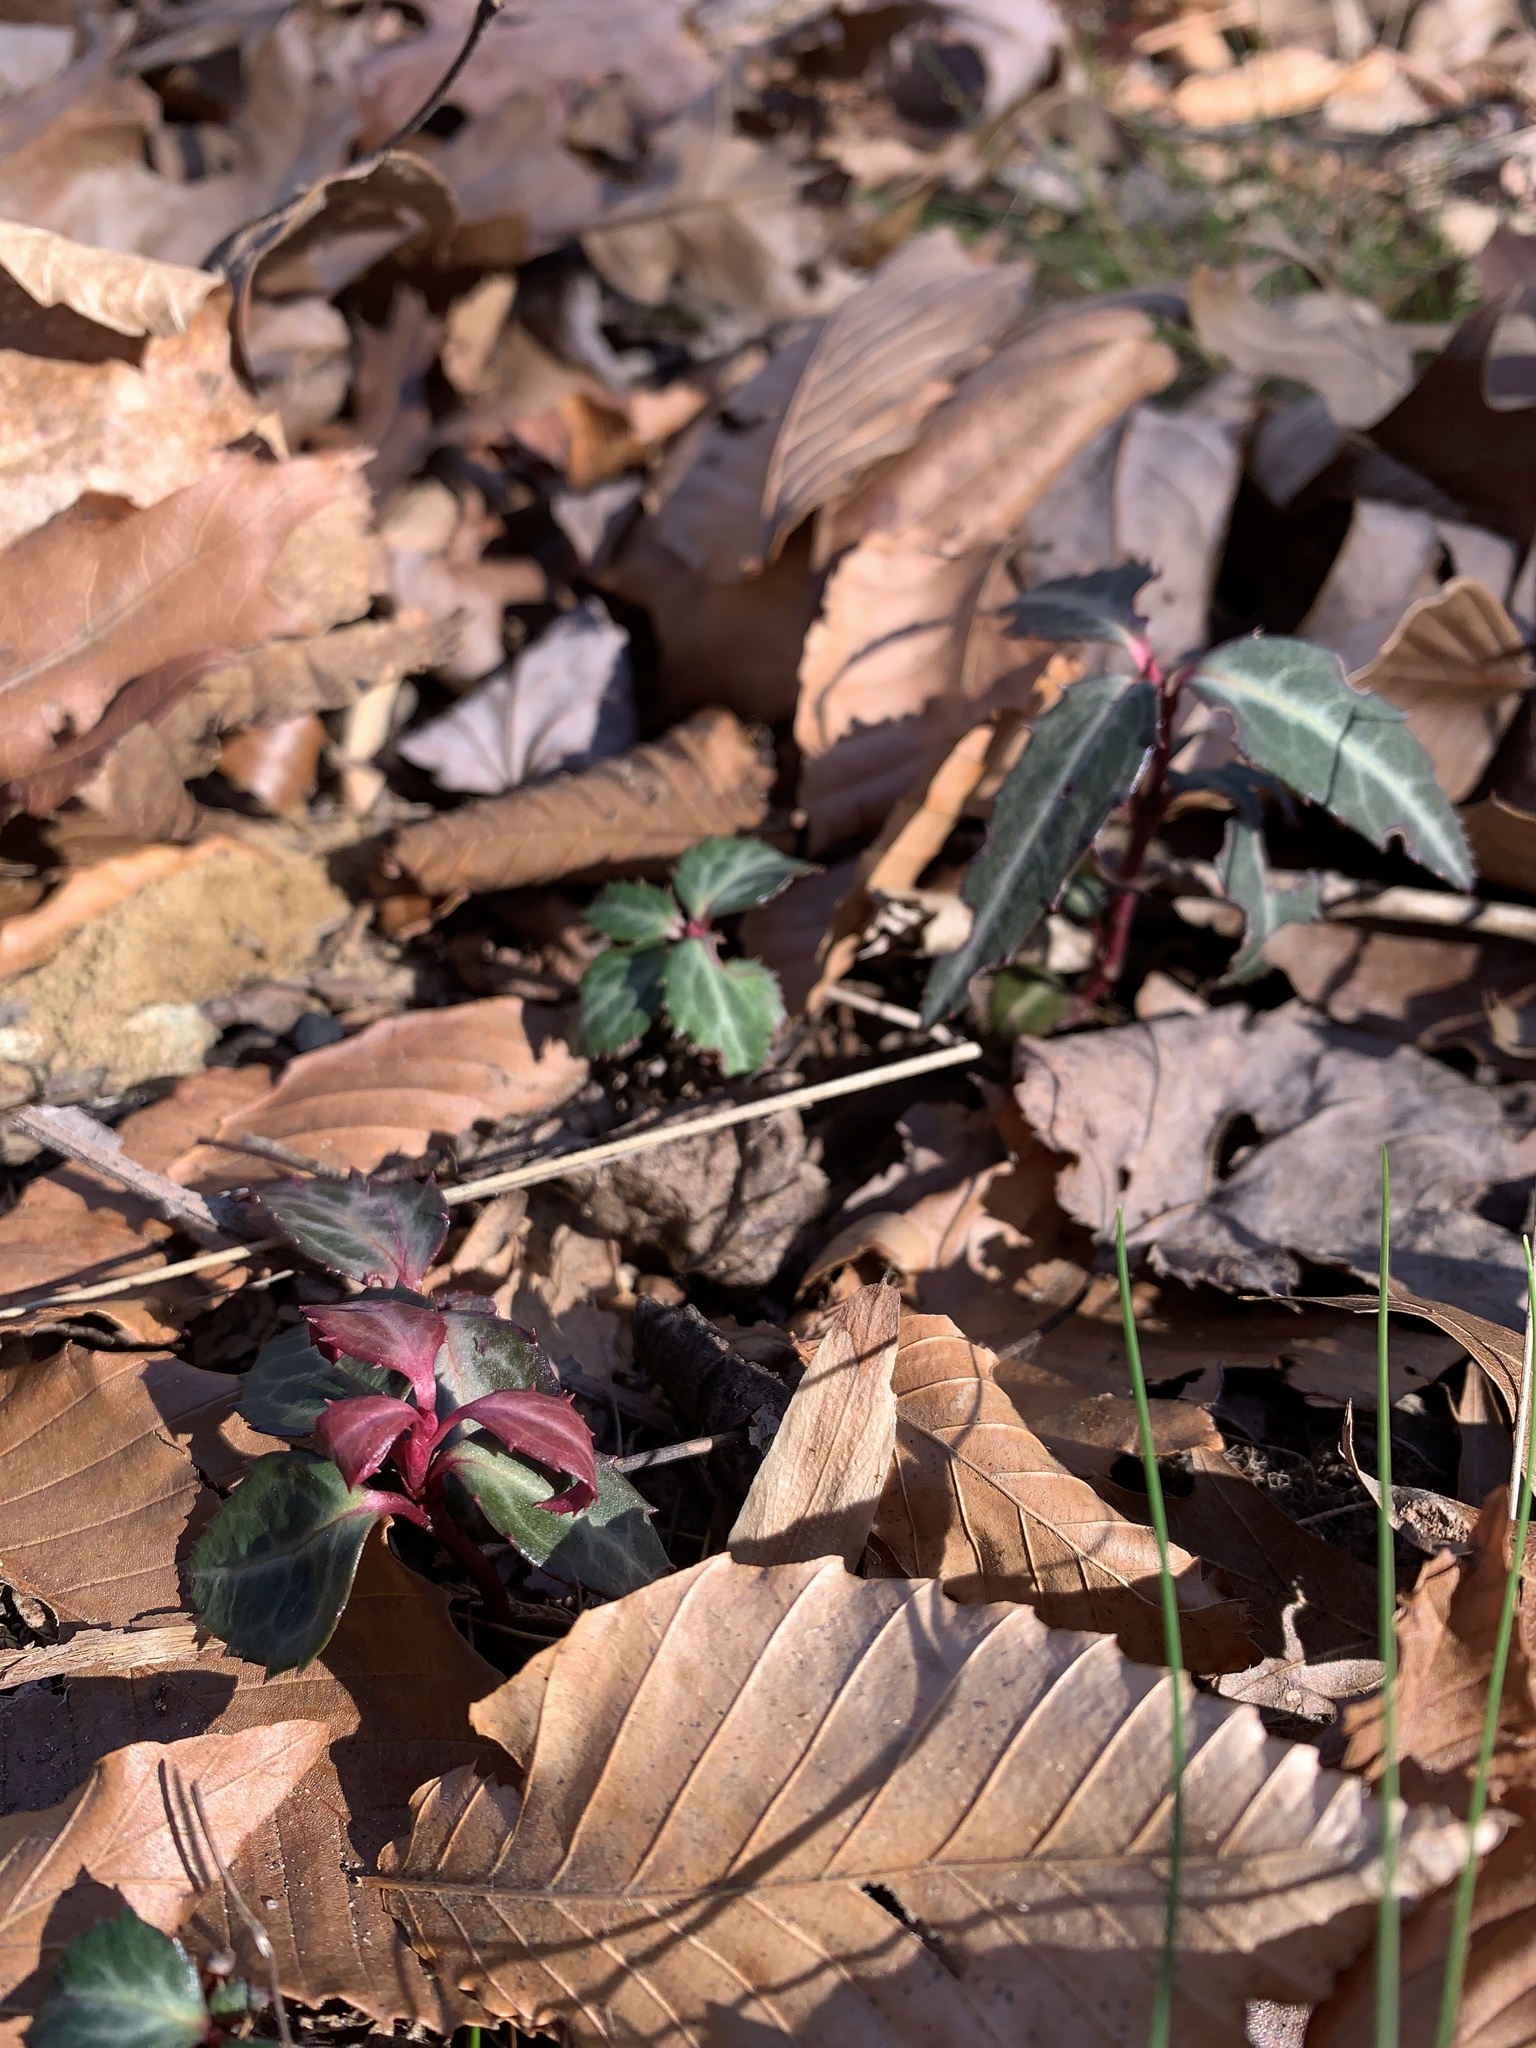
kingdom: Plantae
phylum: Tracheophyta
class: Magnoliopsida
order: Ericales
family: Ericaceae
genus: Chimaphila
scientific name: Chimaphila maculata
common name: Spotted pipsissewa
